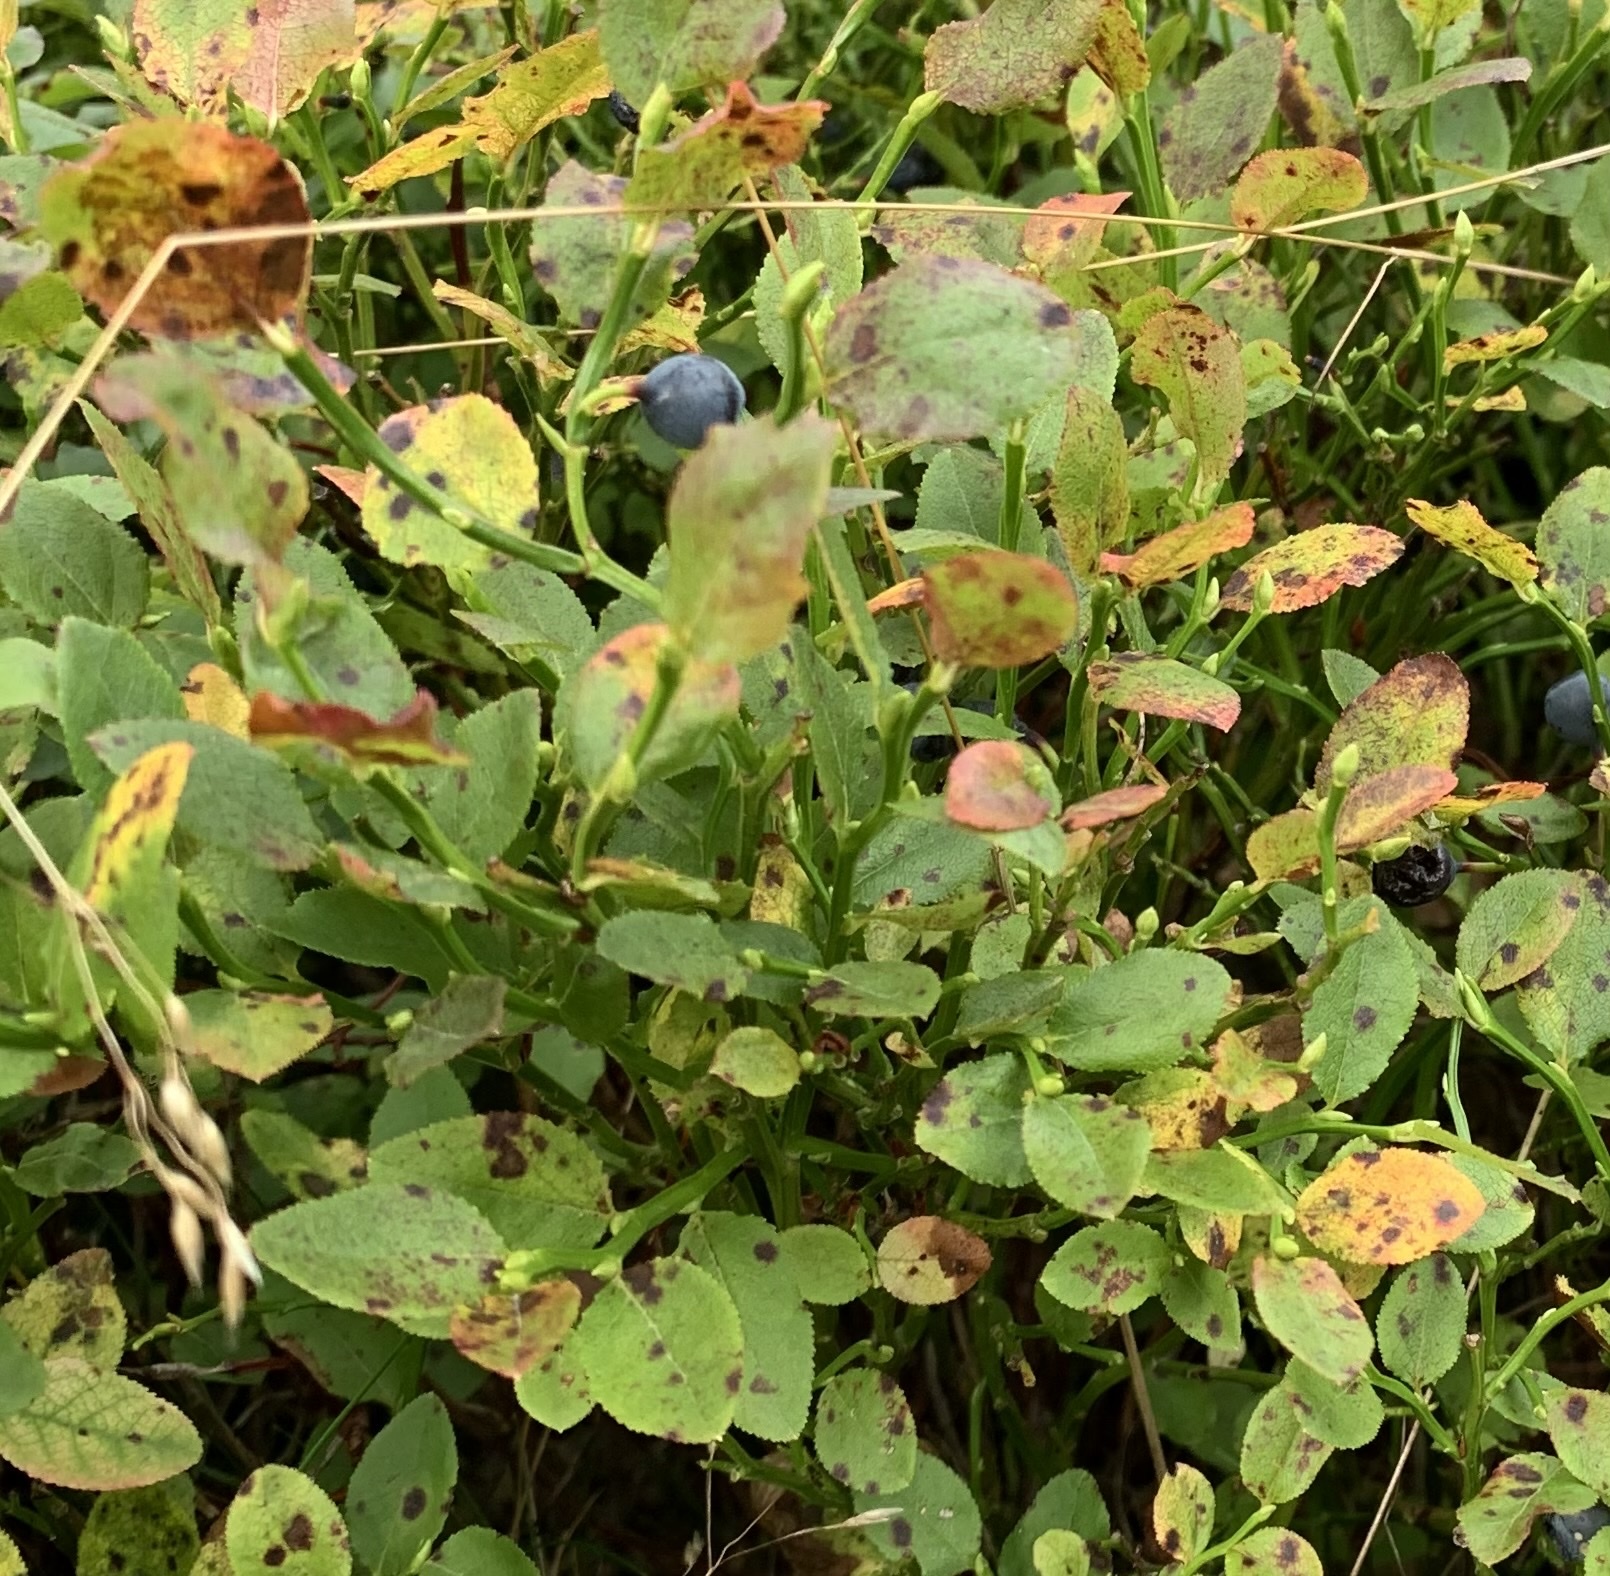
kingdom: Plantae
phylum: Tracheophyta
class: Magnoliopsida
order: Ericales
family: Ericaceae
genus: Vaccinium
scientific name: Vaccinium myrtillus
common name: Bilberry
